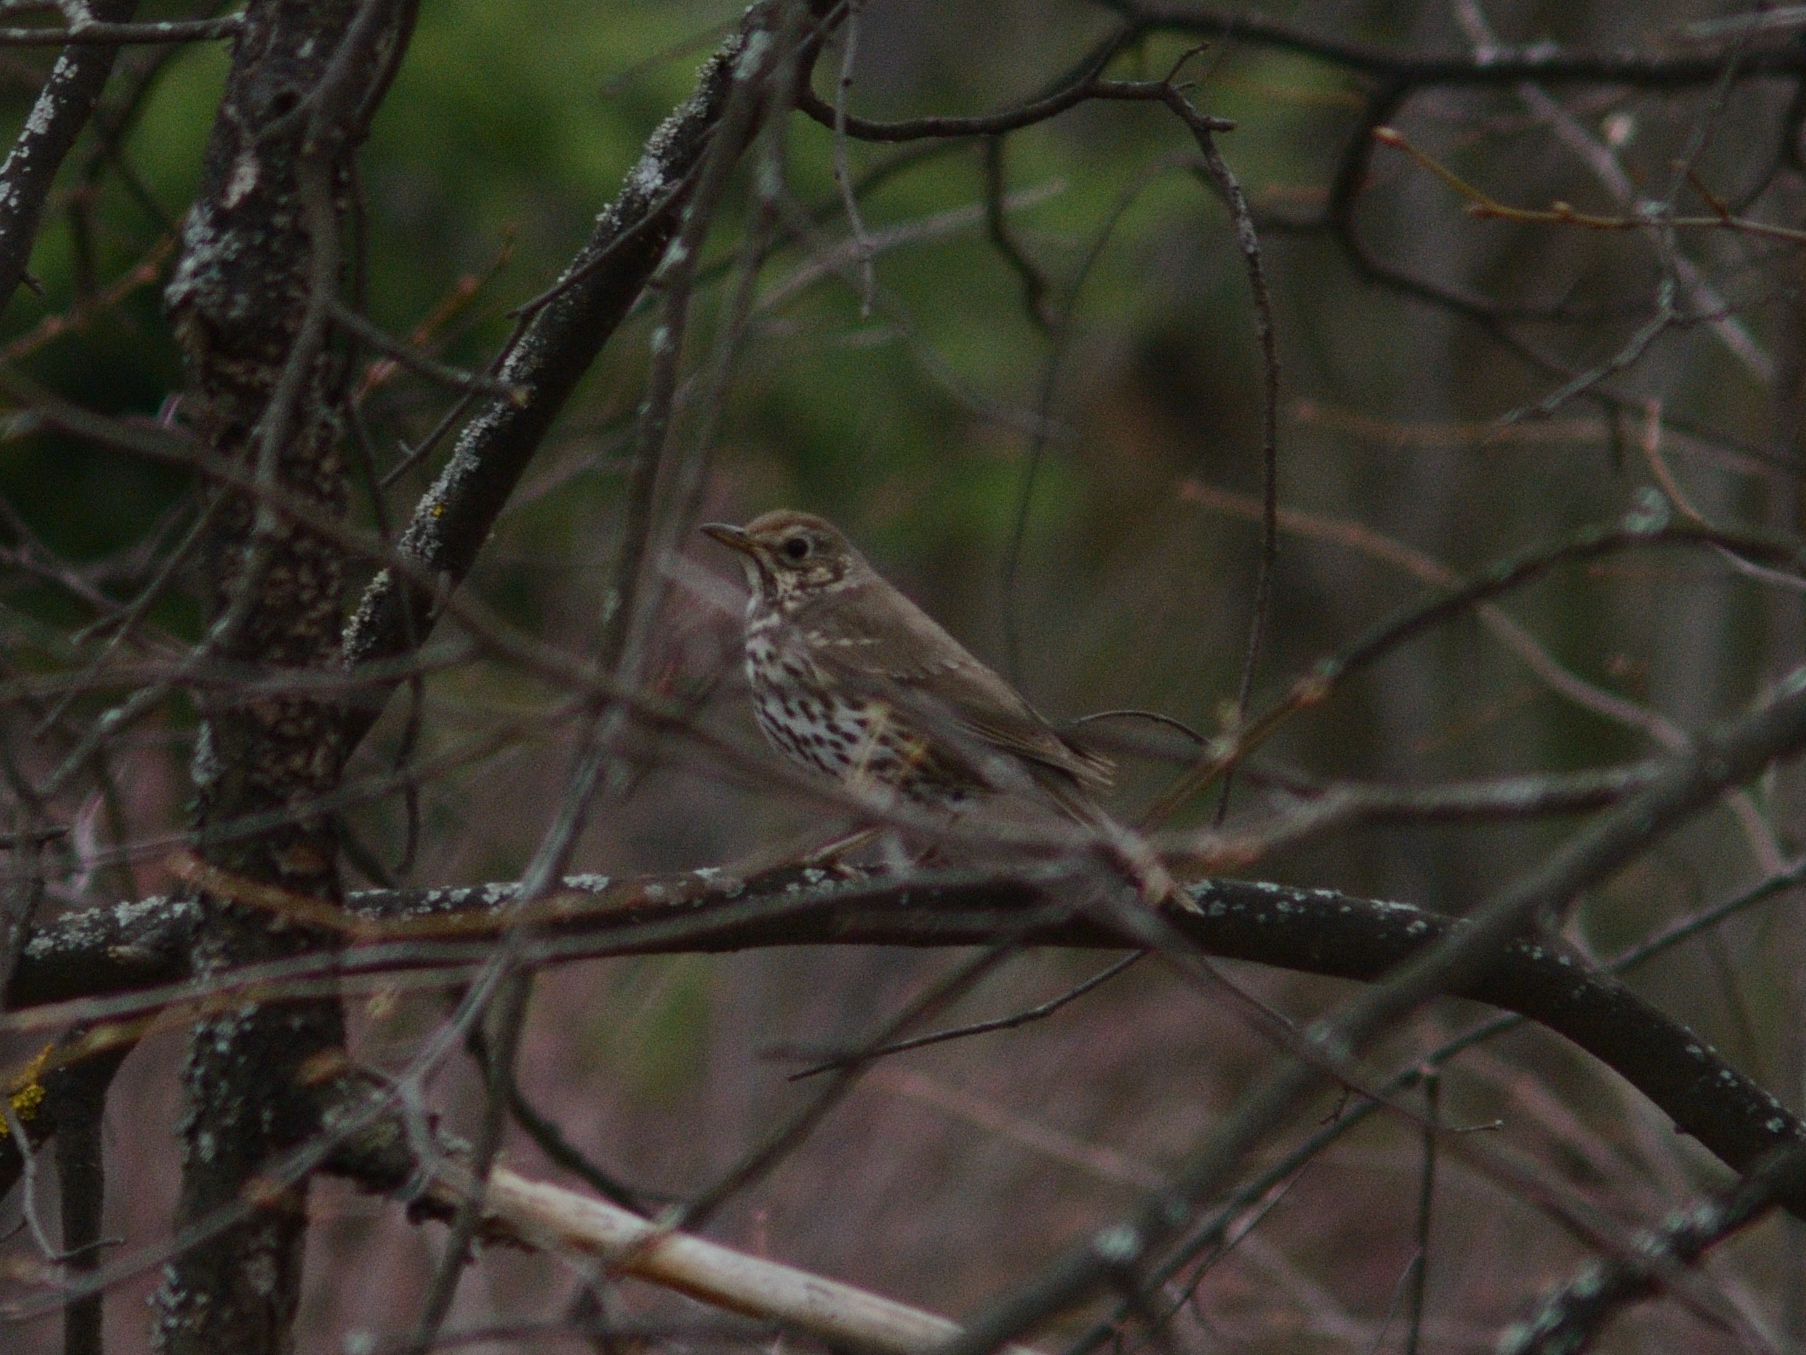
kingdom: Animalia
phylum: Chordata
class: Aves
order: Passeriformes
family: Turdidae
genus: Turdus
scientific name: Turdus philomelos
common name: Song thrush
